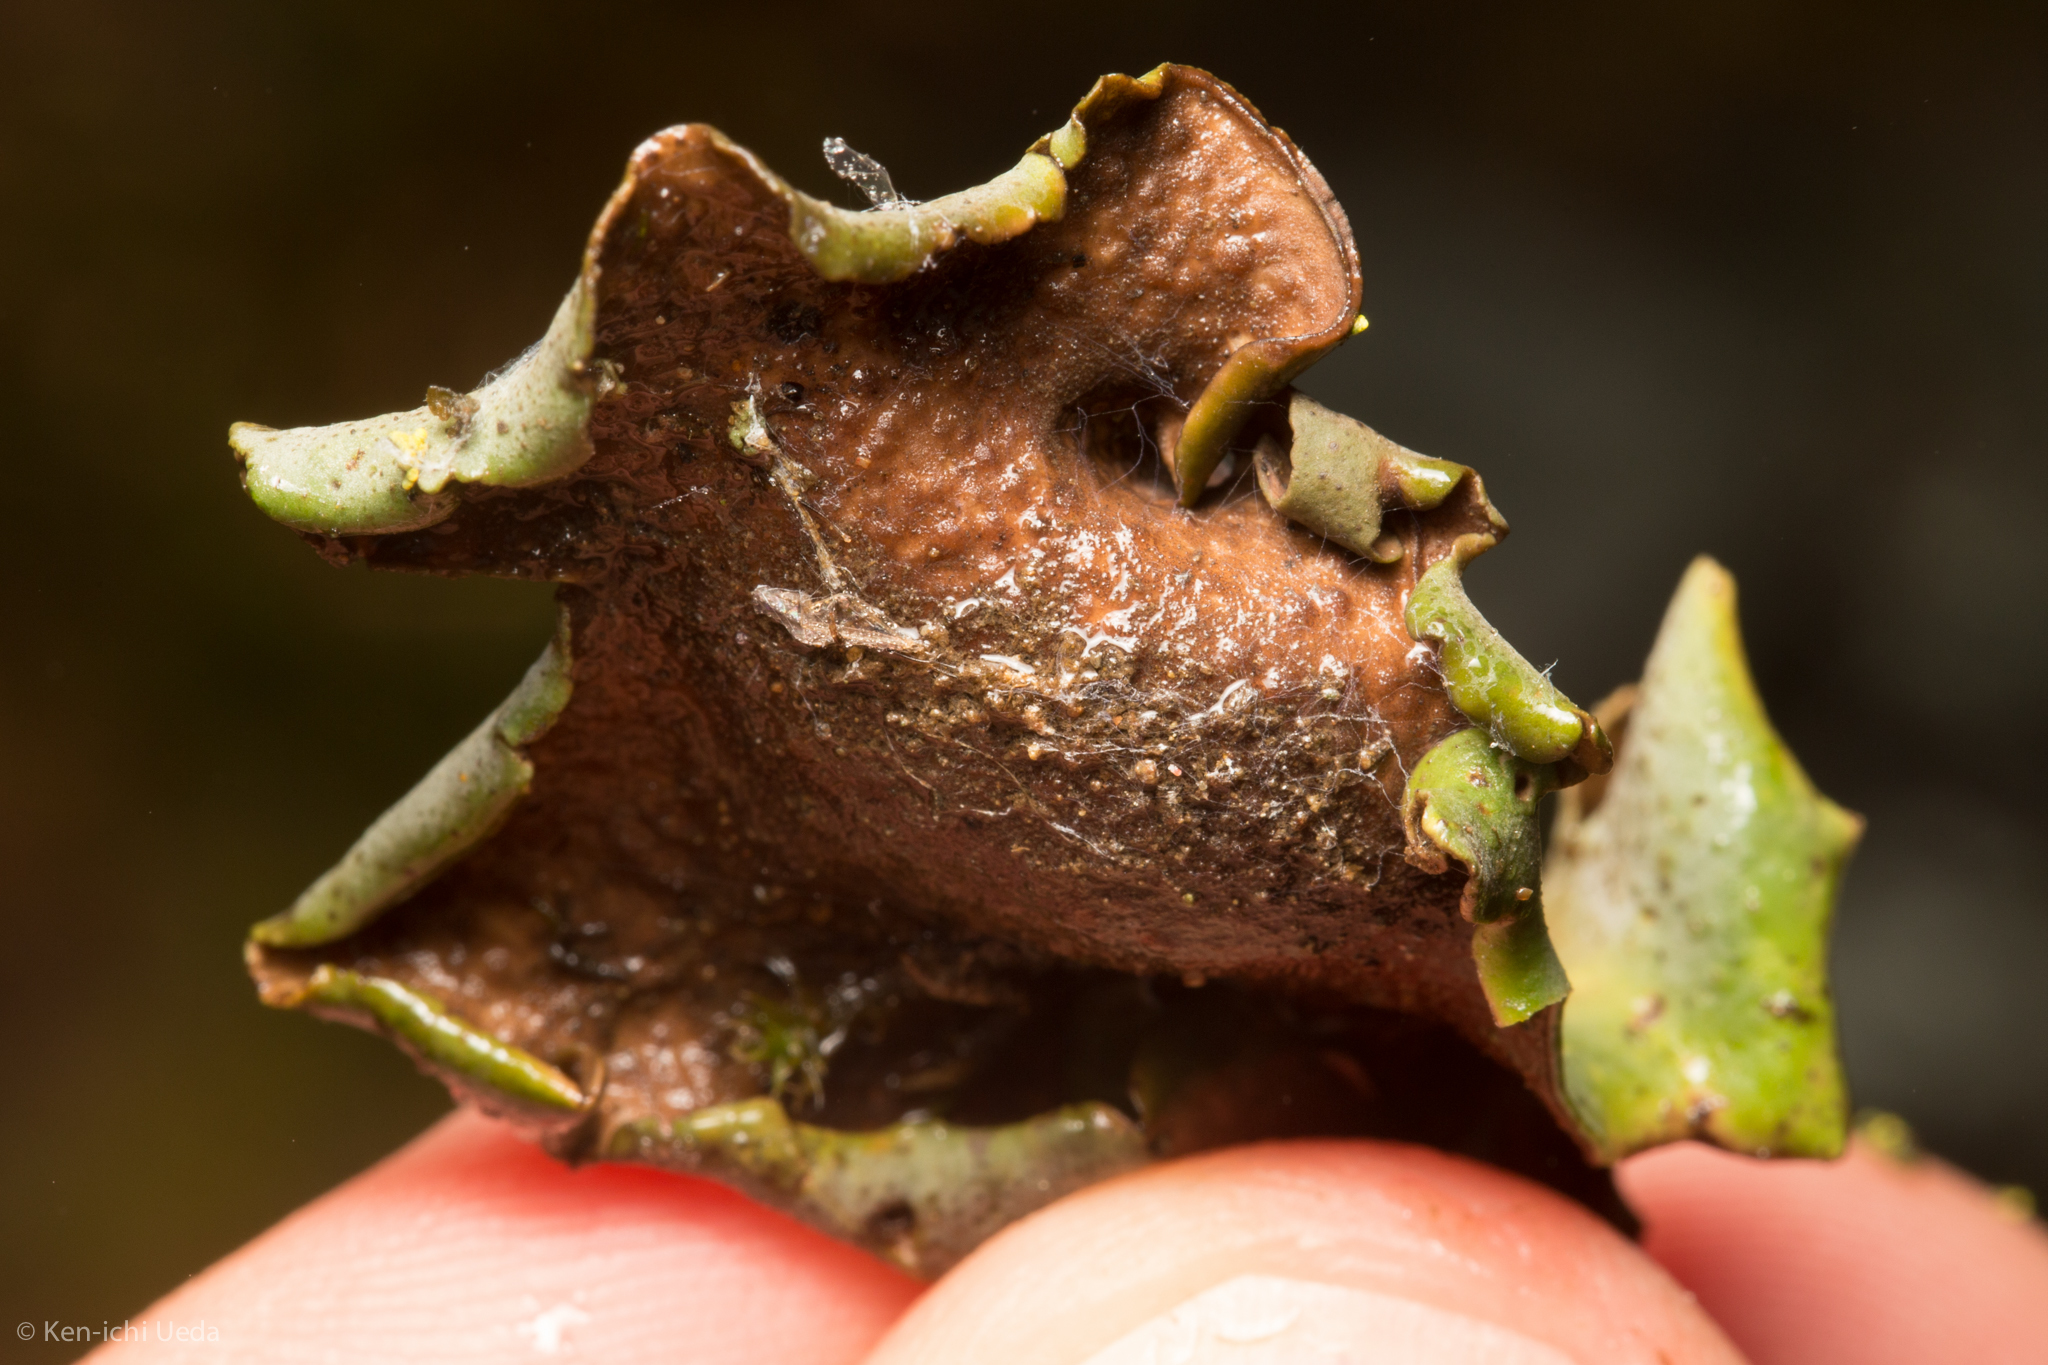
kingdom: Fungi
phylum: Ascomycota
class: Eurotiomycetes
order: Verrucariales
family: Verrucariaceae
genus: Dermatocarpon
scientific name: Dermatocarpon americanum
